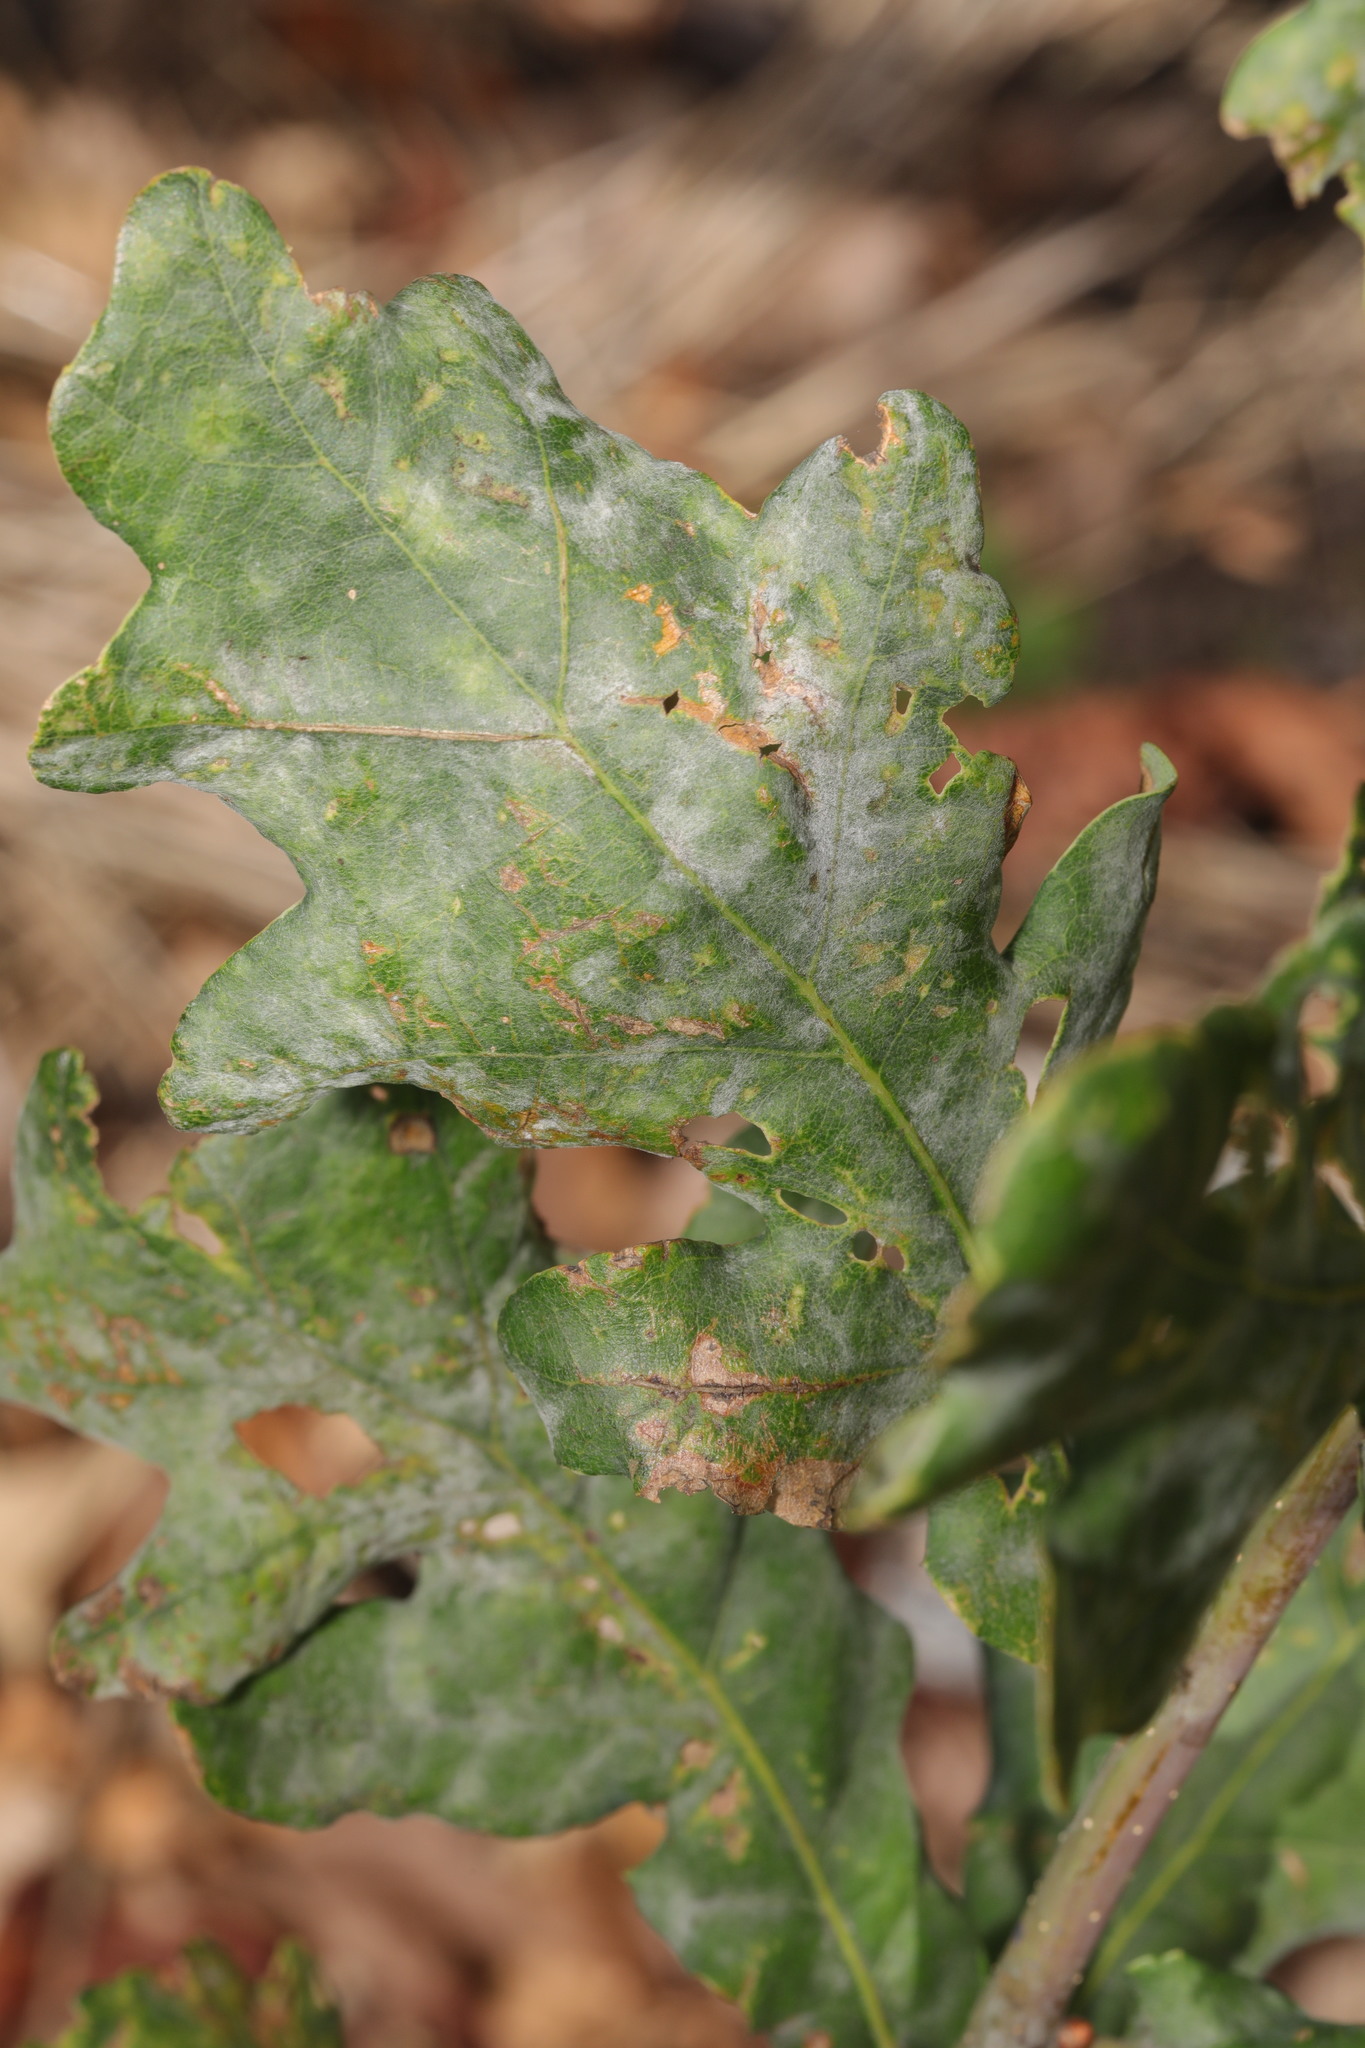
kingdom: Fungi
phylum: Ascomycota
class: Leotiomycetes
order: Helotiales
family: Erysiphaceae
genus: Erysiphe
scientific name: Erysiphe alphitoides
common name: Oak mildew
